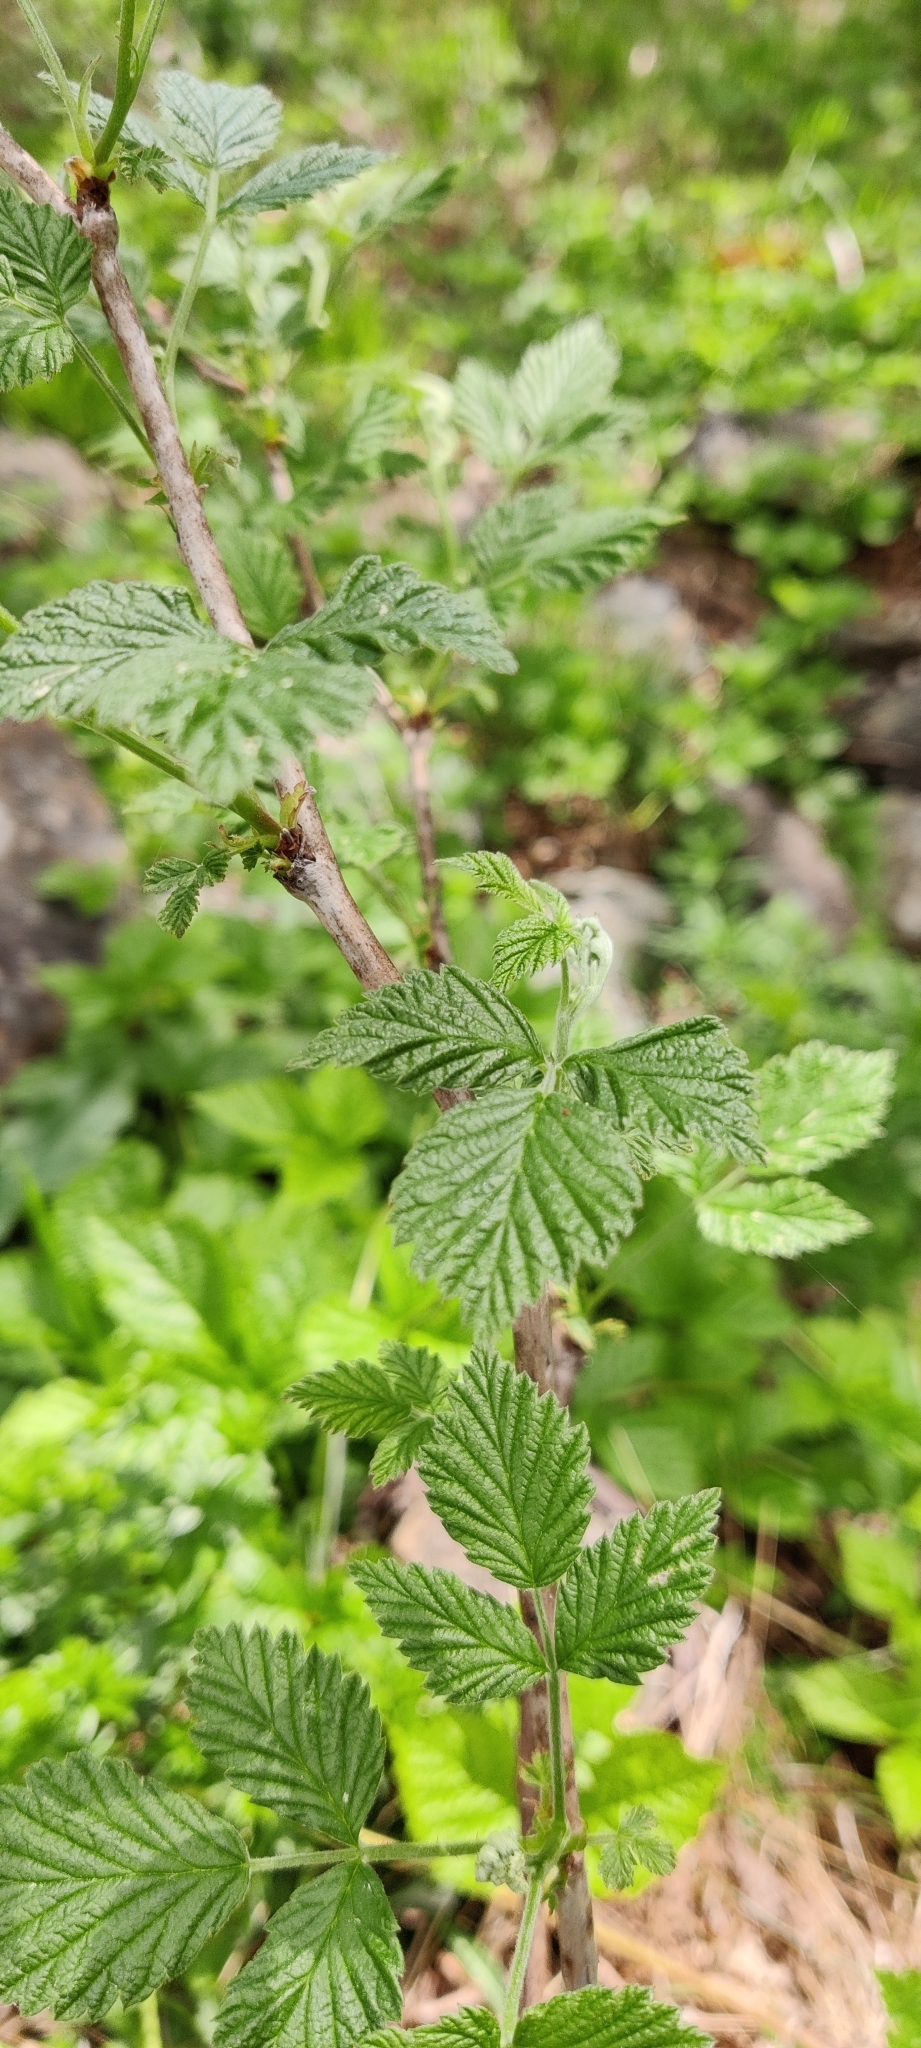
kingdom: Plantae
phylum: Tracheophyta
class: Magnoliopsida
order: Rosales
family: Rosaceae
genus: Rubus
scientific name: Rubus idaeus
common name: Raspberry
